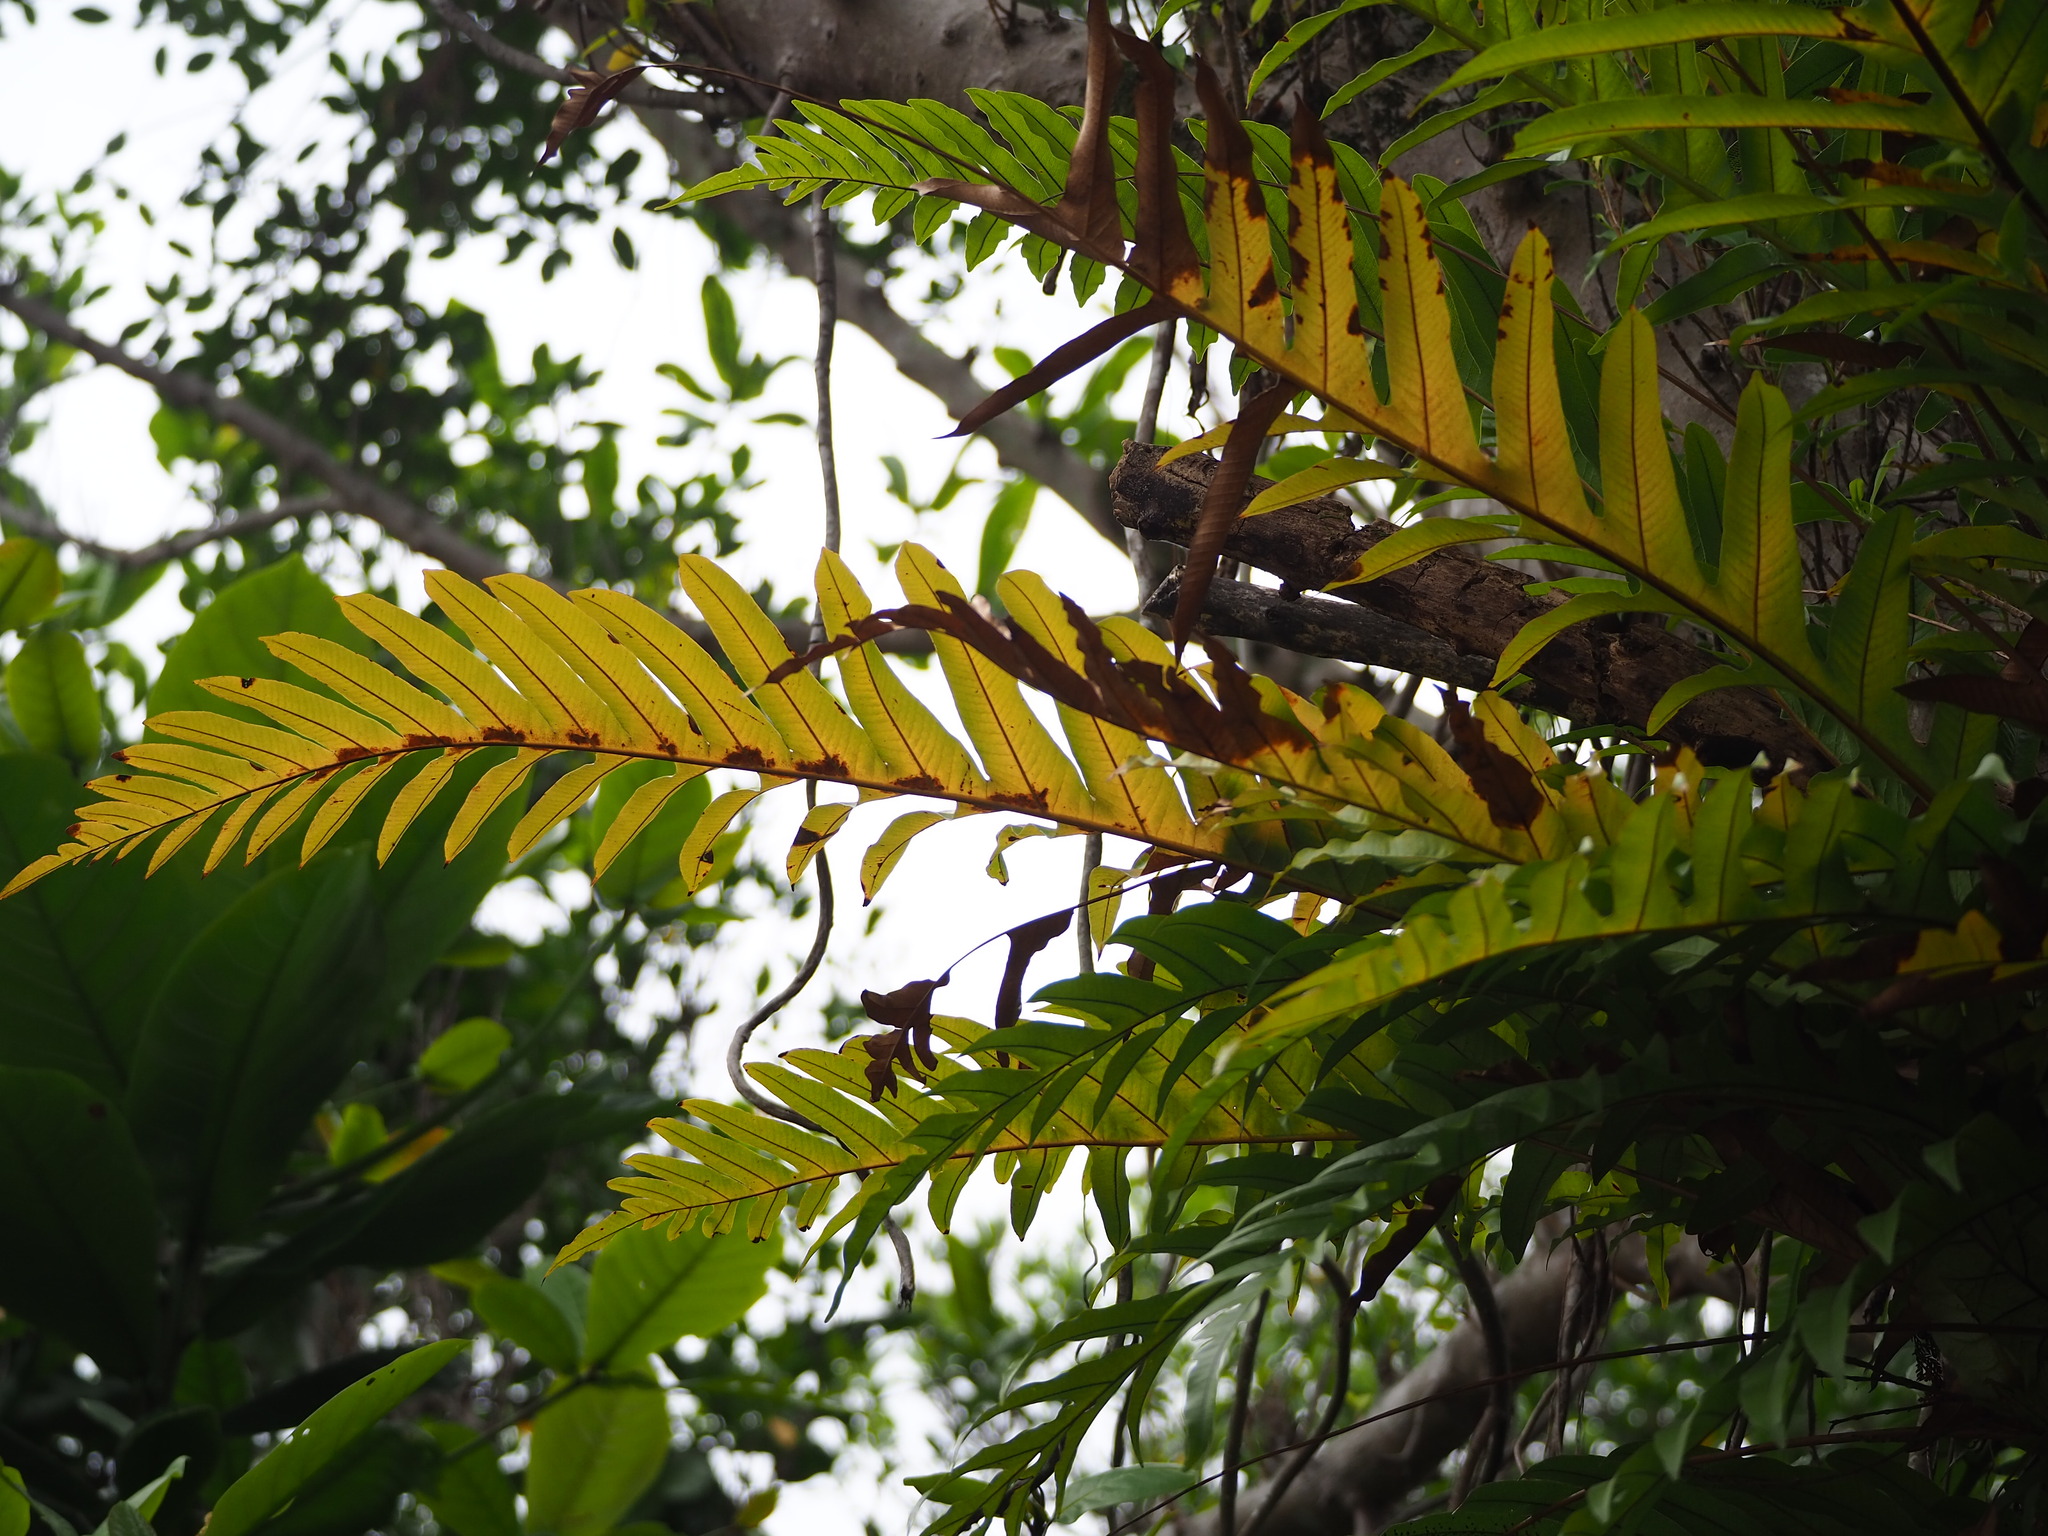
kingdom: Plantae
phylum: Tracheophyta
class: Polypodiopsida
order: Polypodiales
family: Polypodiaceae
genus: Drynaria
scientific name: Drynaria coronans
